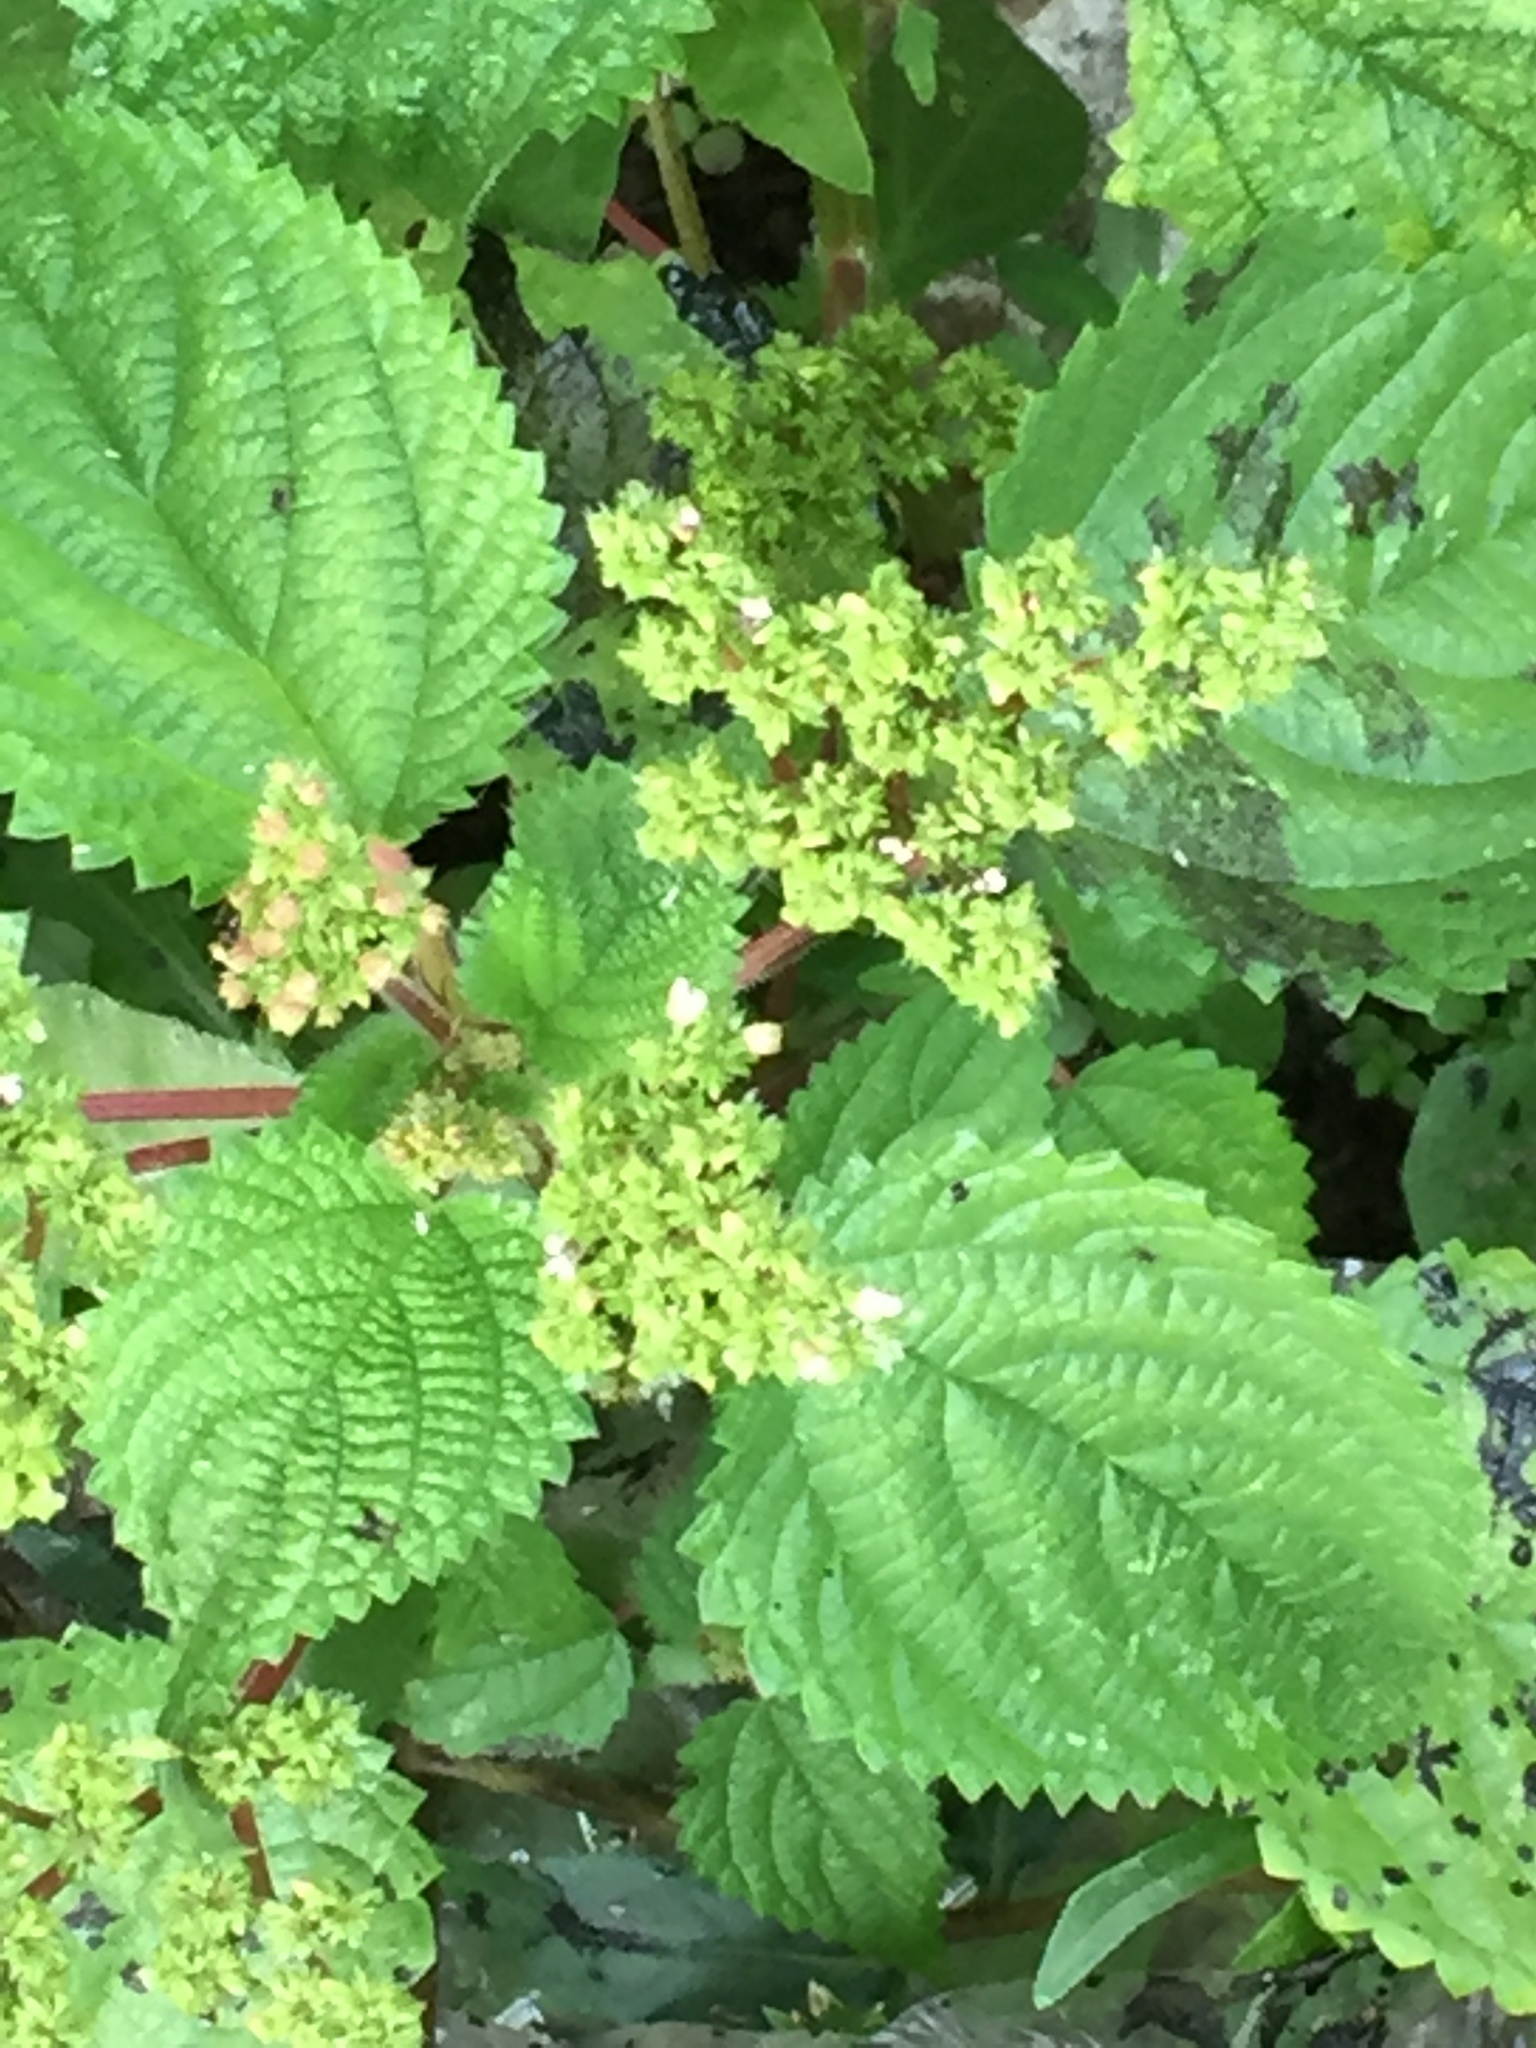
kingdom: Plantae
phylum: Tracheophyta
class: Magnoliopsida
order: Rosales
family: Urticaceae
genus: Laportea
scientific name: Laportea aestuans
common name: West indian woodnettle
